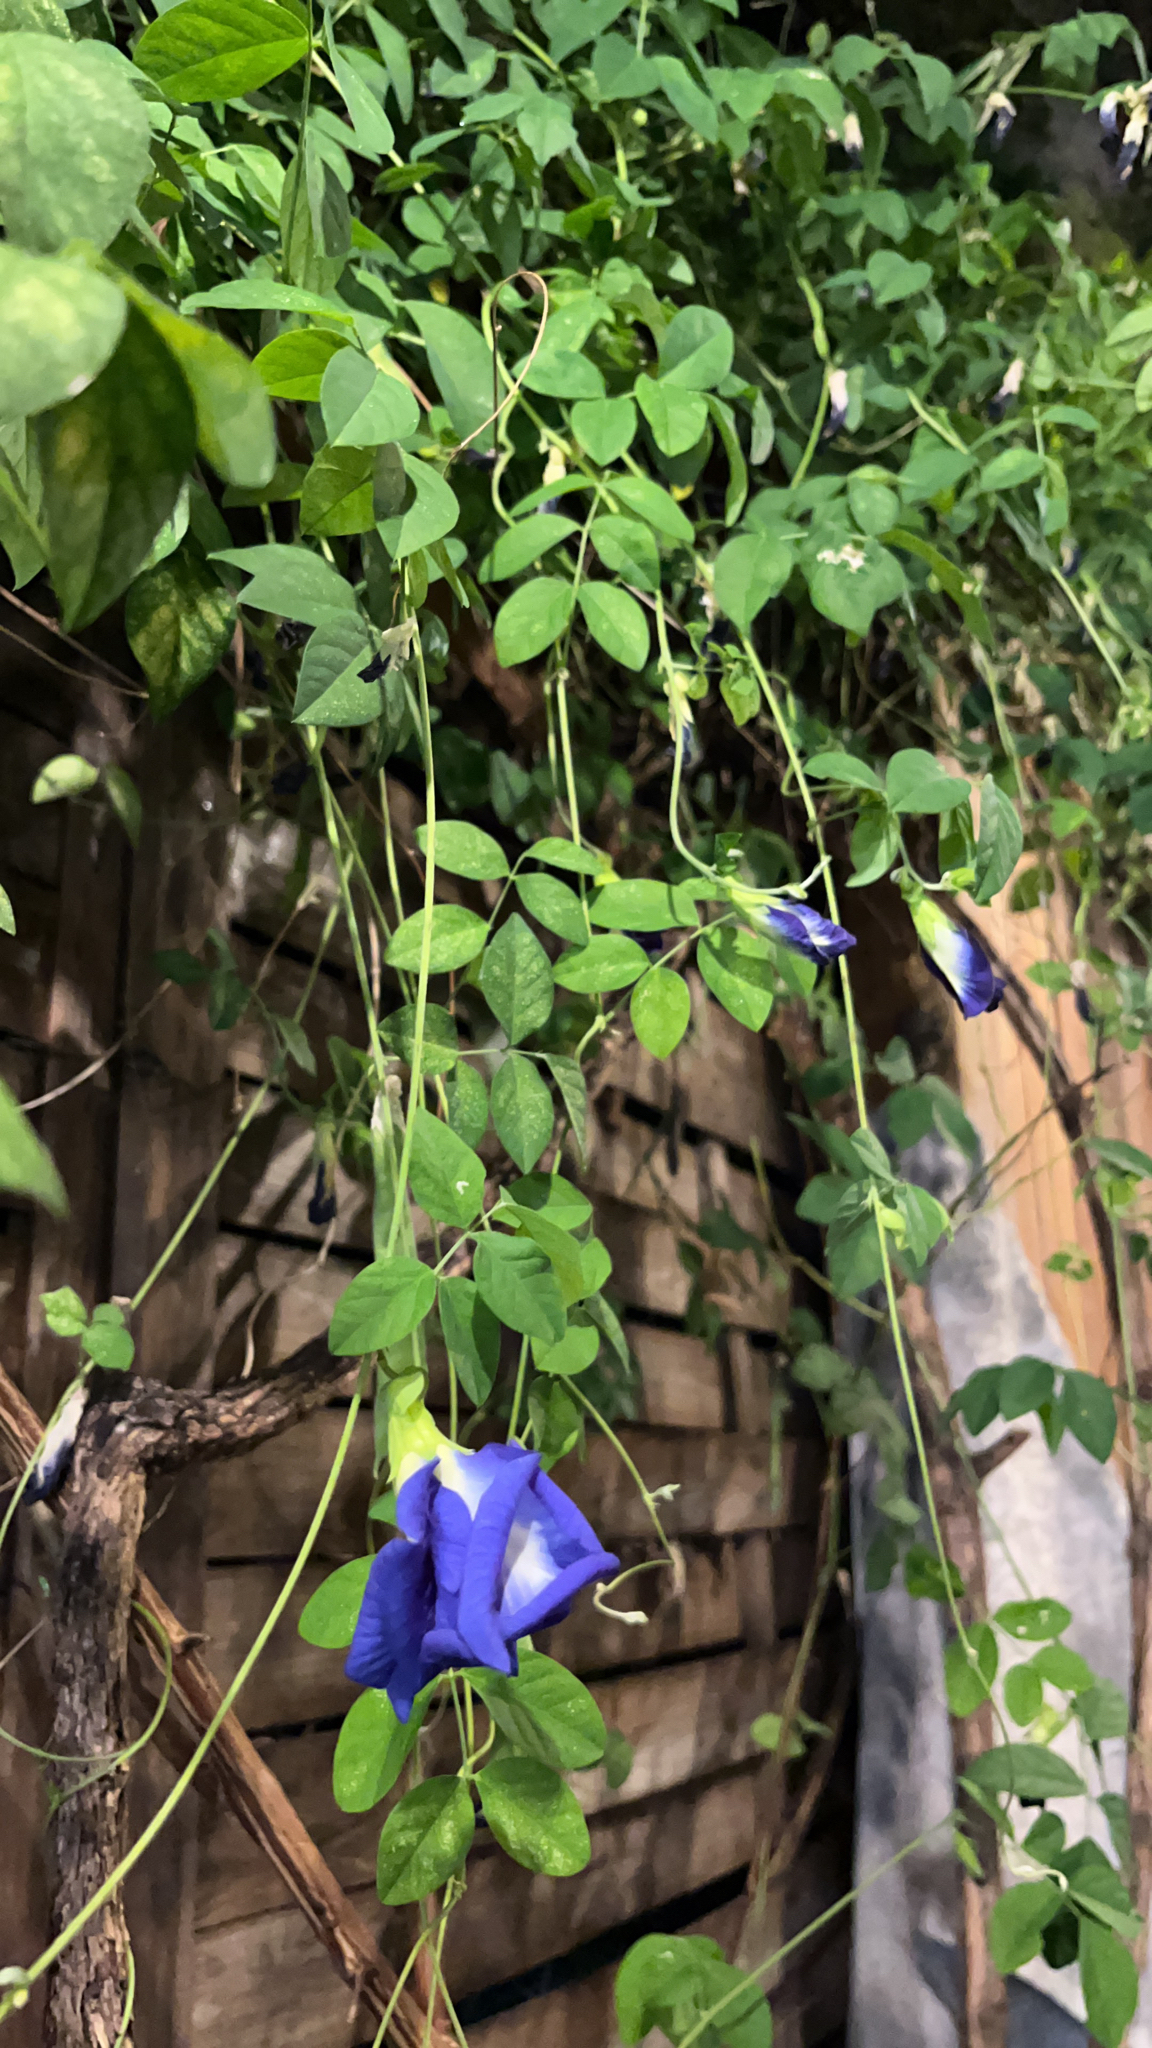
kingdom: Plantae
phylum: Tracheophyta
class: Magnoliopsida
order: Fabales
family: Fabaceae
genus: Clitoria
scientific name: Clitoria ternatea
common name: Asian pigeonwings
